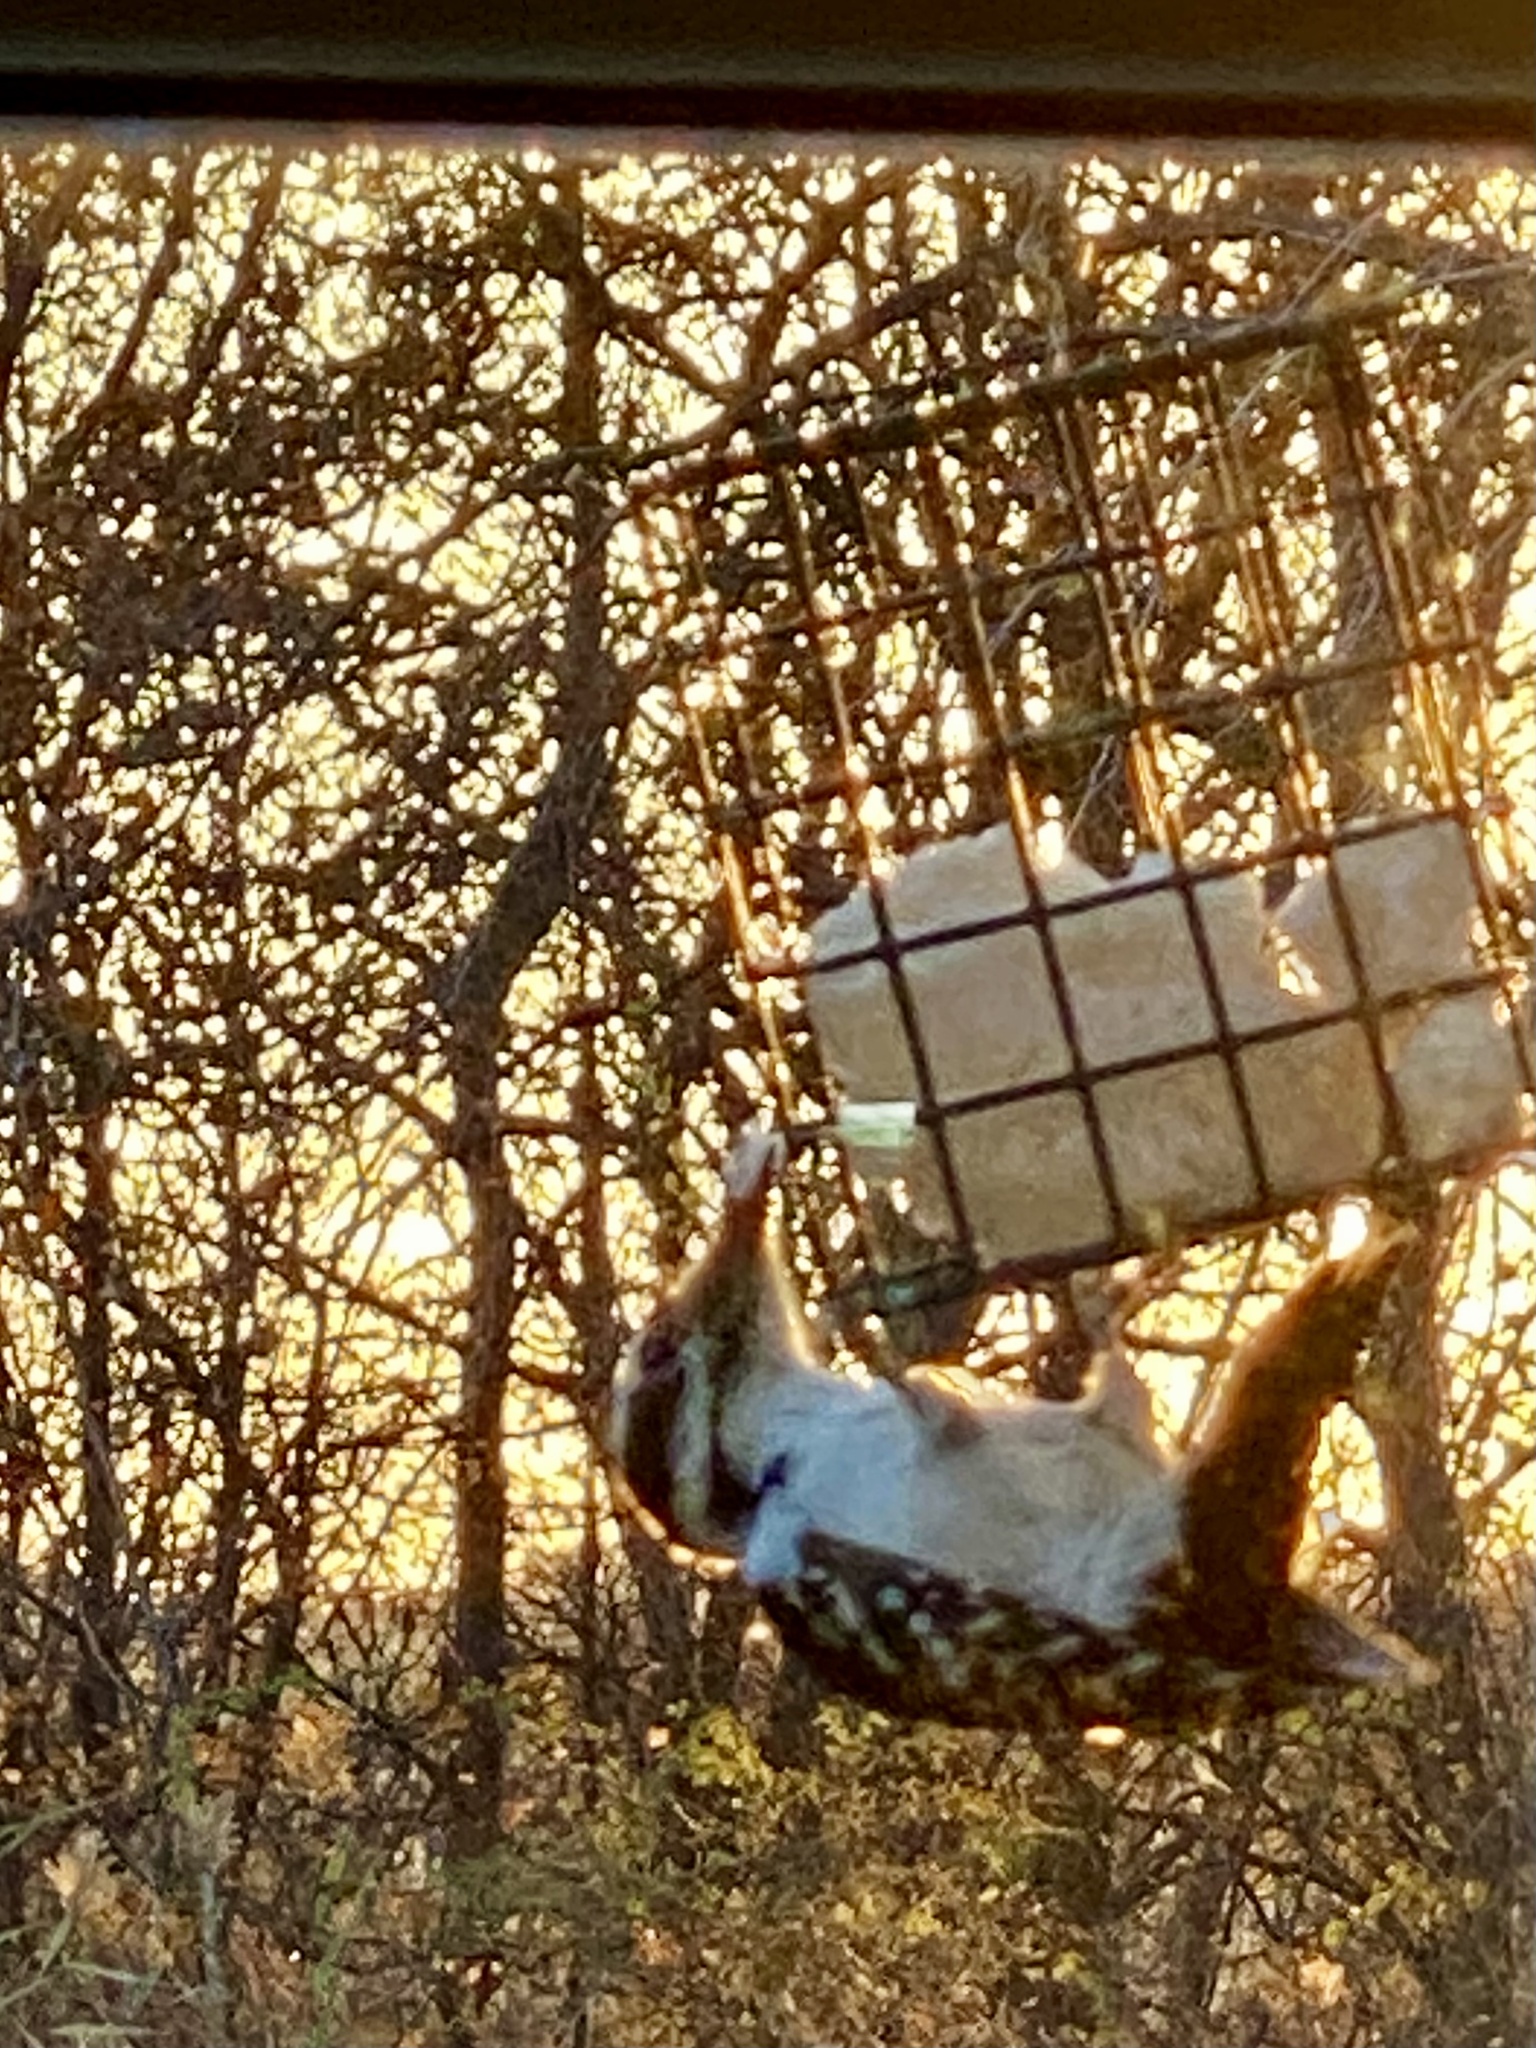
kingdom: Animalia
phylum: Chordata
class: Aves
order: Piciformes
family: Picidae
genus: Leuconotopicus
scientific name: Leuconotopicus villosus
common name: Hairy woodpecker
